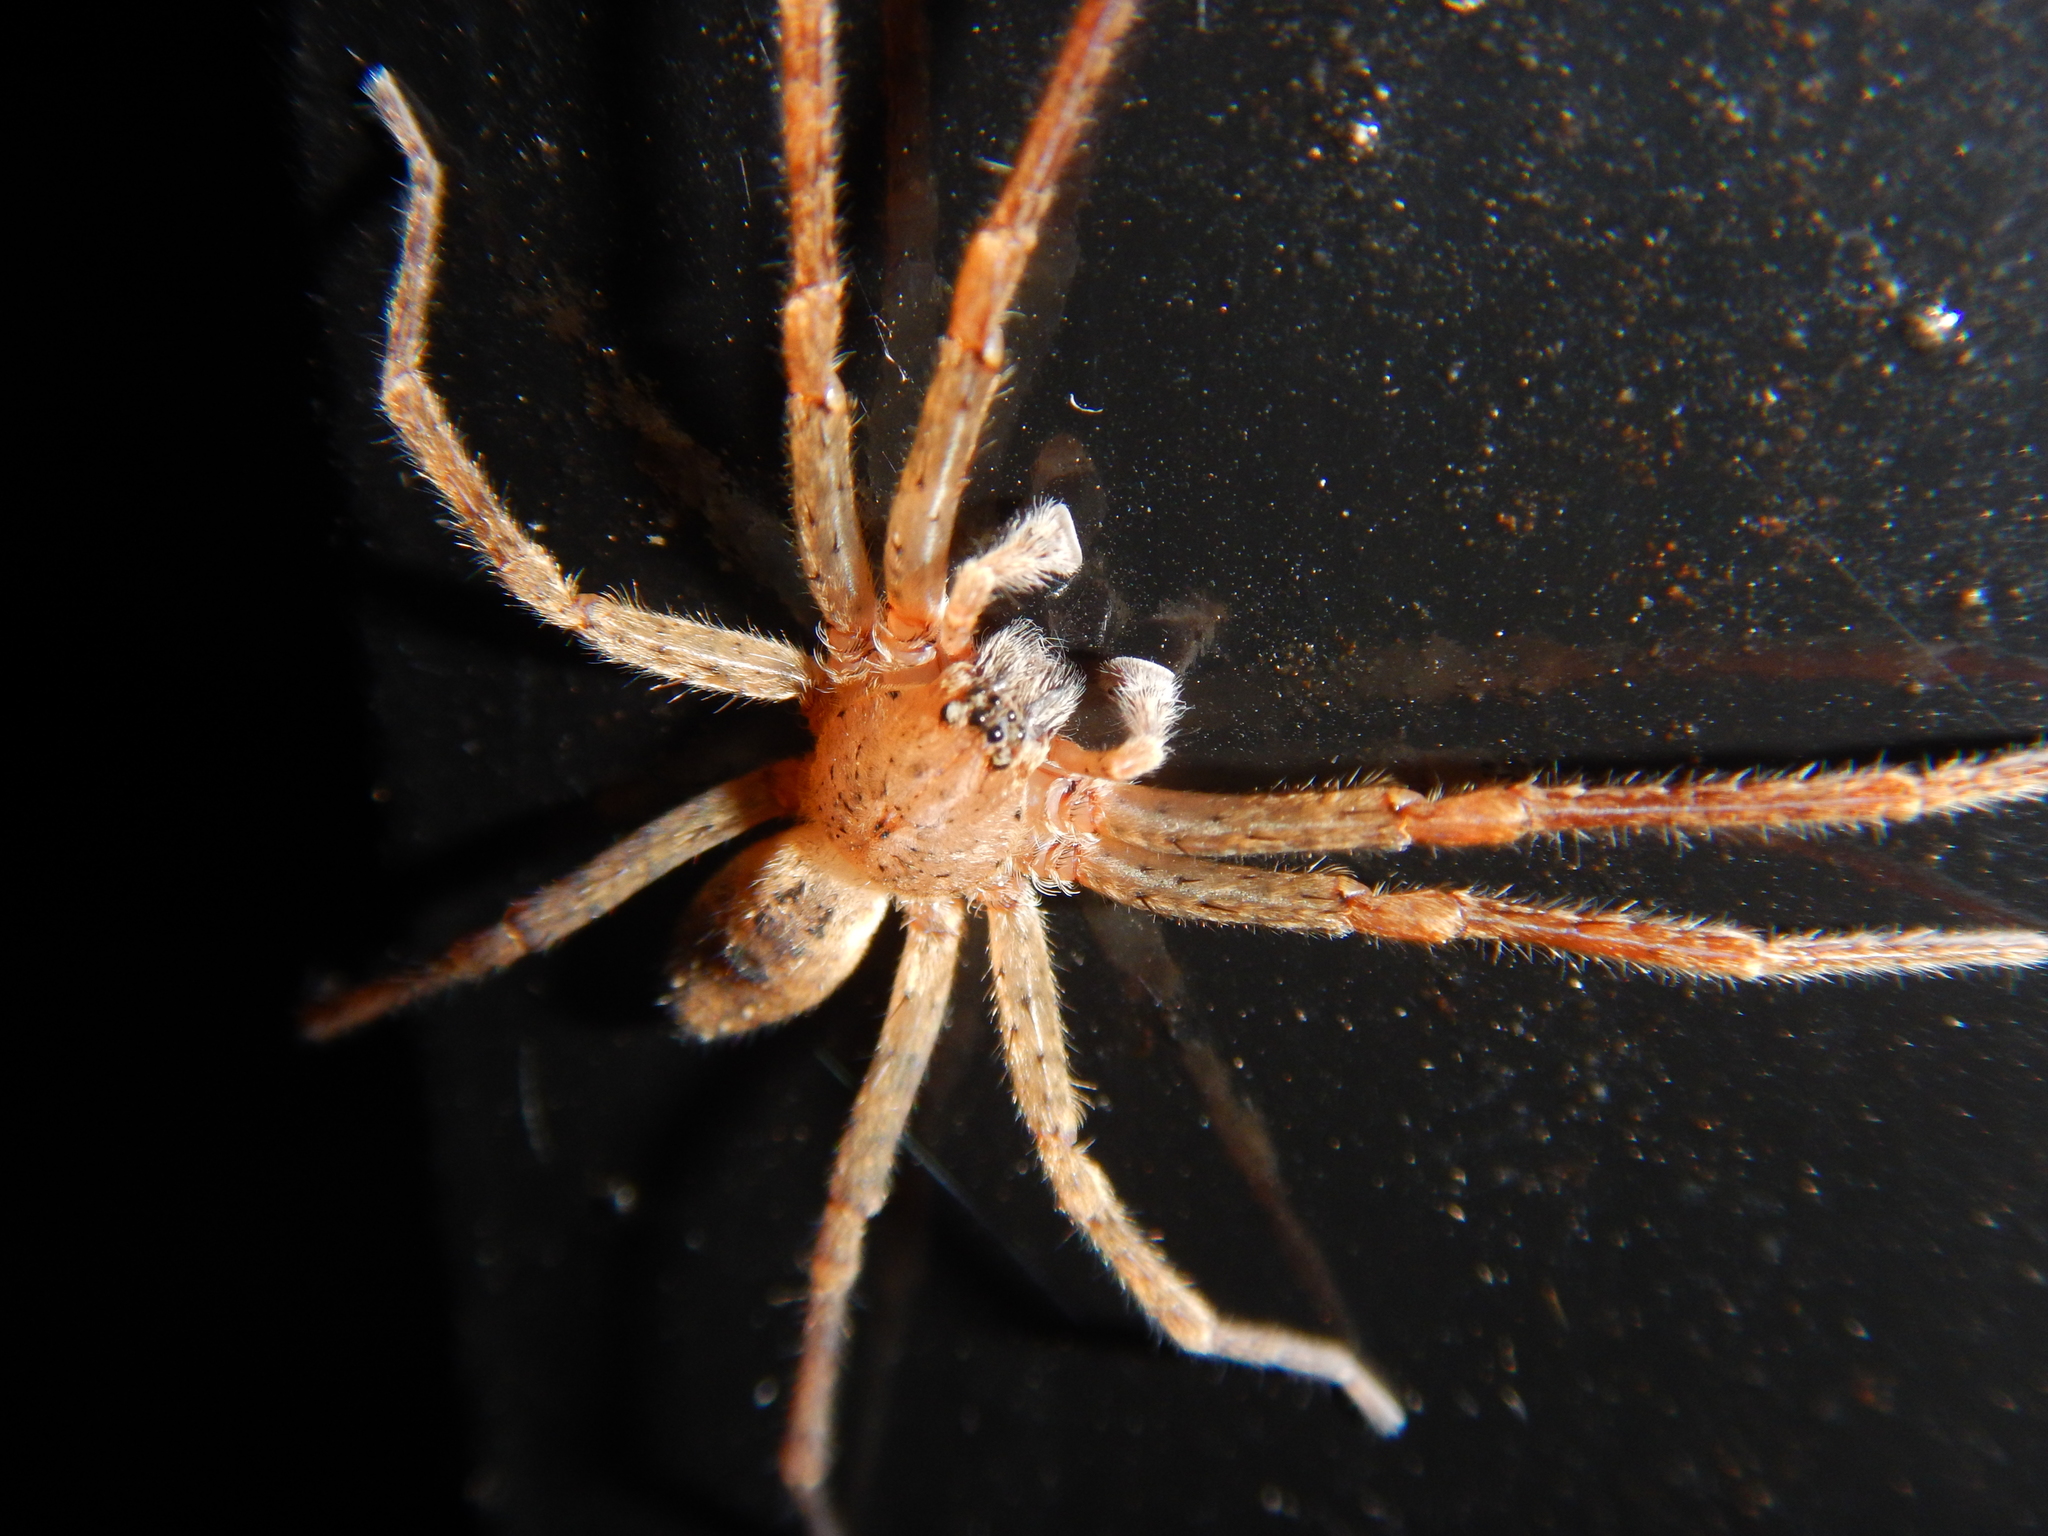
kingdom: Animalia
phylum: Arthropoda
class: Arachnida
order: Araneae
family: Zoropsidae
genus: Zoropsis
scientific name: Zoropsis lutea
